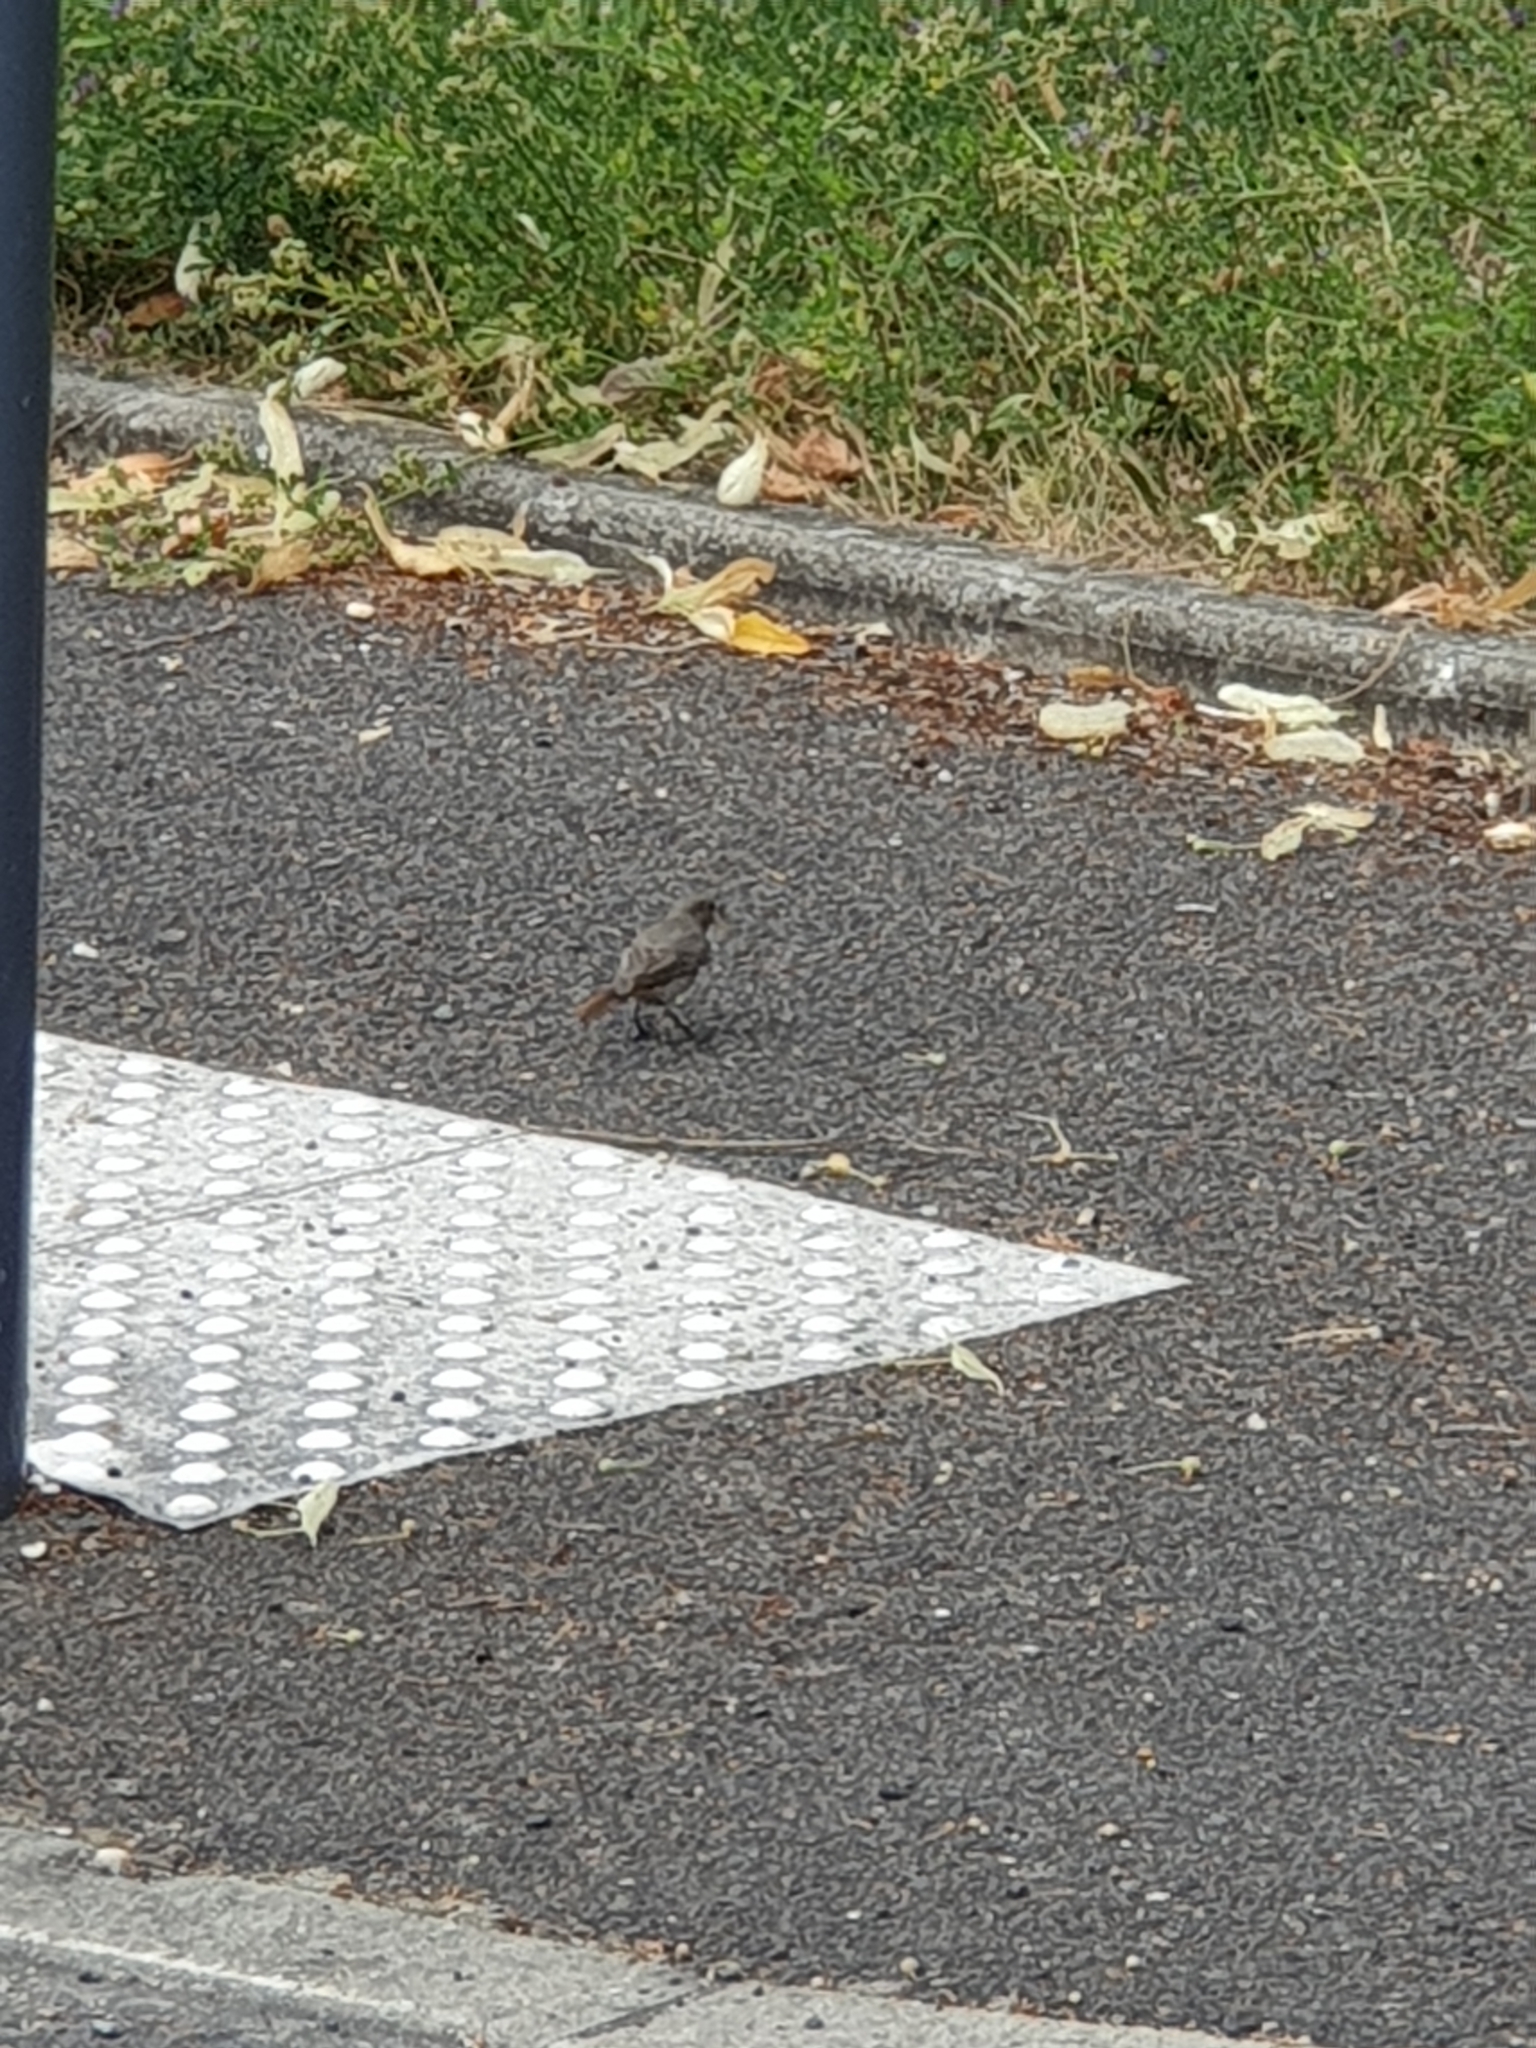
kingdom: Animalia
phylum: Chordata
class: Aves
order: Passeriformes
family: Muscicapidae
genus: Phoenicurus
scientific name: Phoenicurus ochruros
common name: Black redstart
